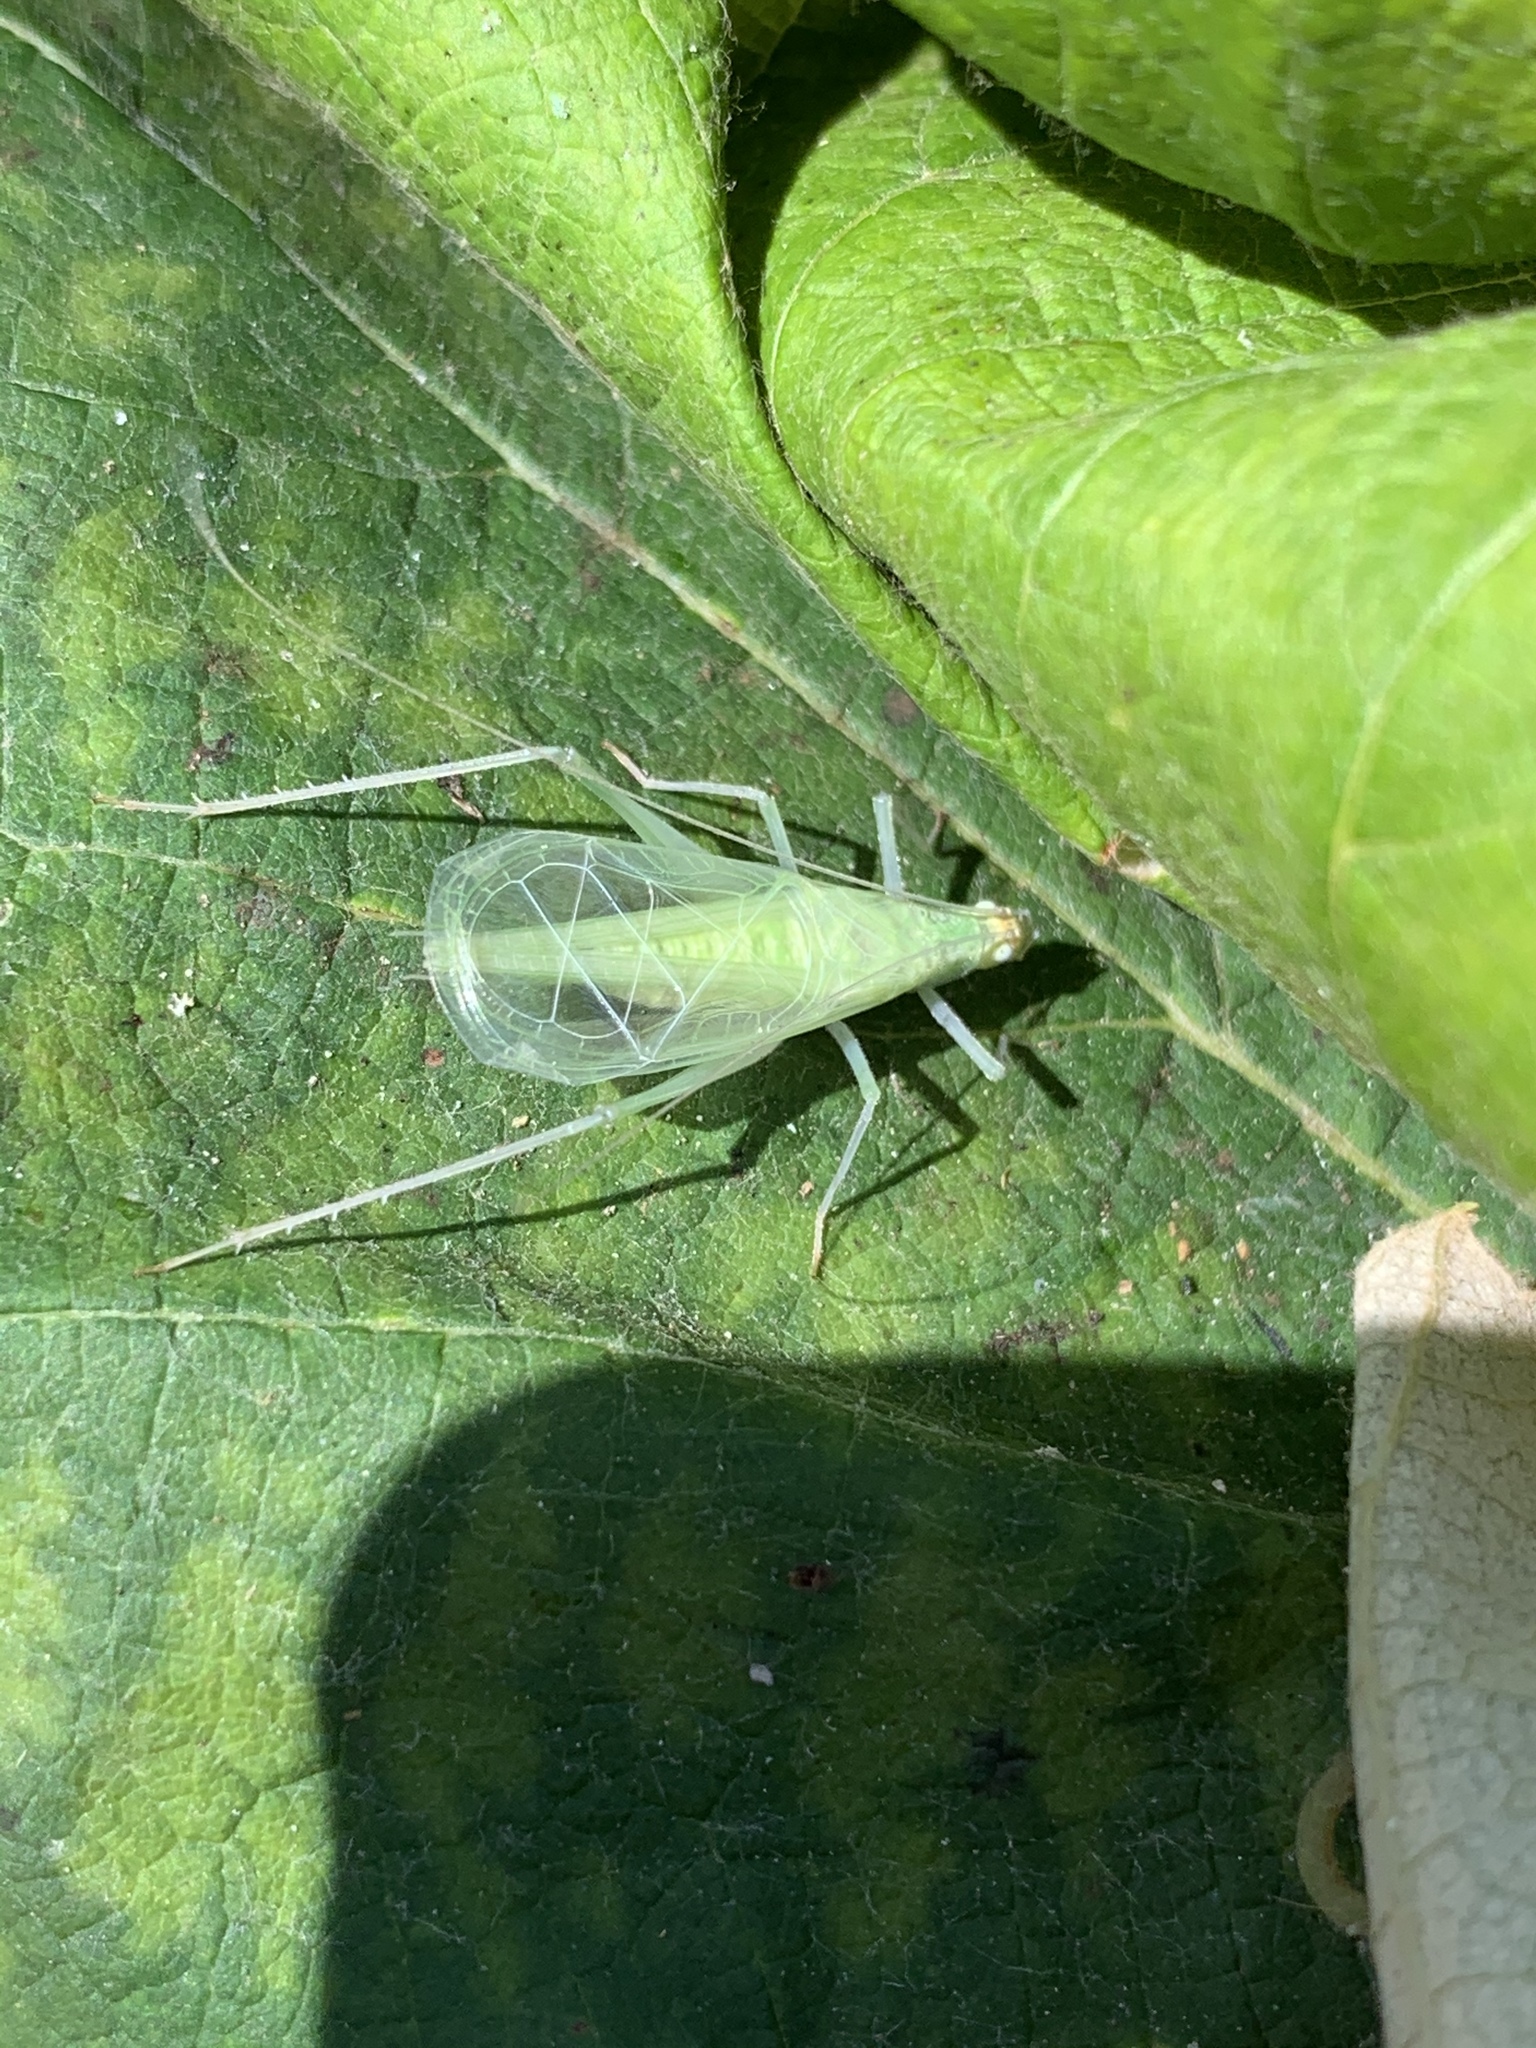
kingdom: Animalia
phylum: Arthropoda
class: Insecta
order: Orthoptera
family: Gryllidae
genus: Oecanthus
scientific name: Oecanthus
